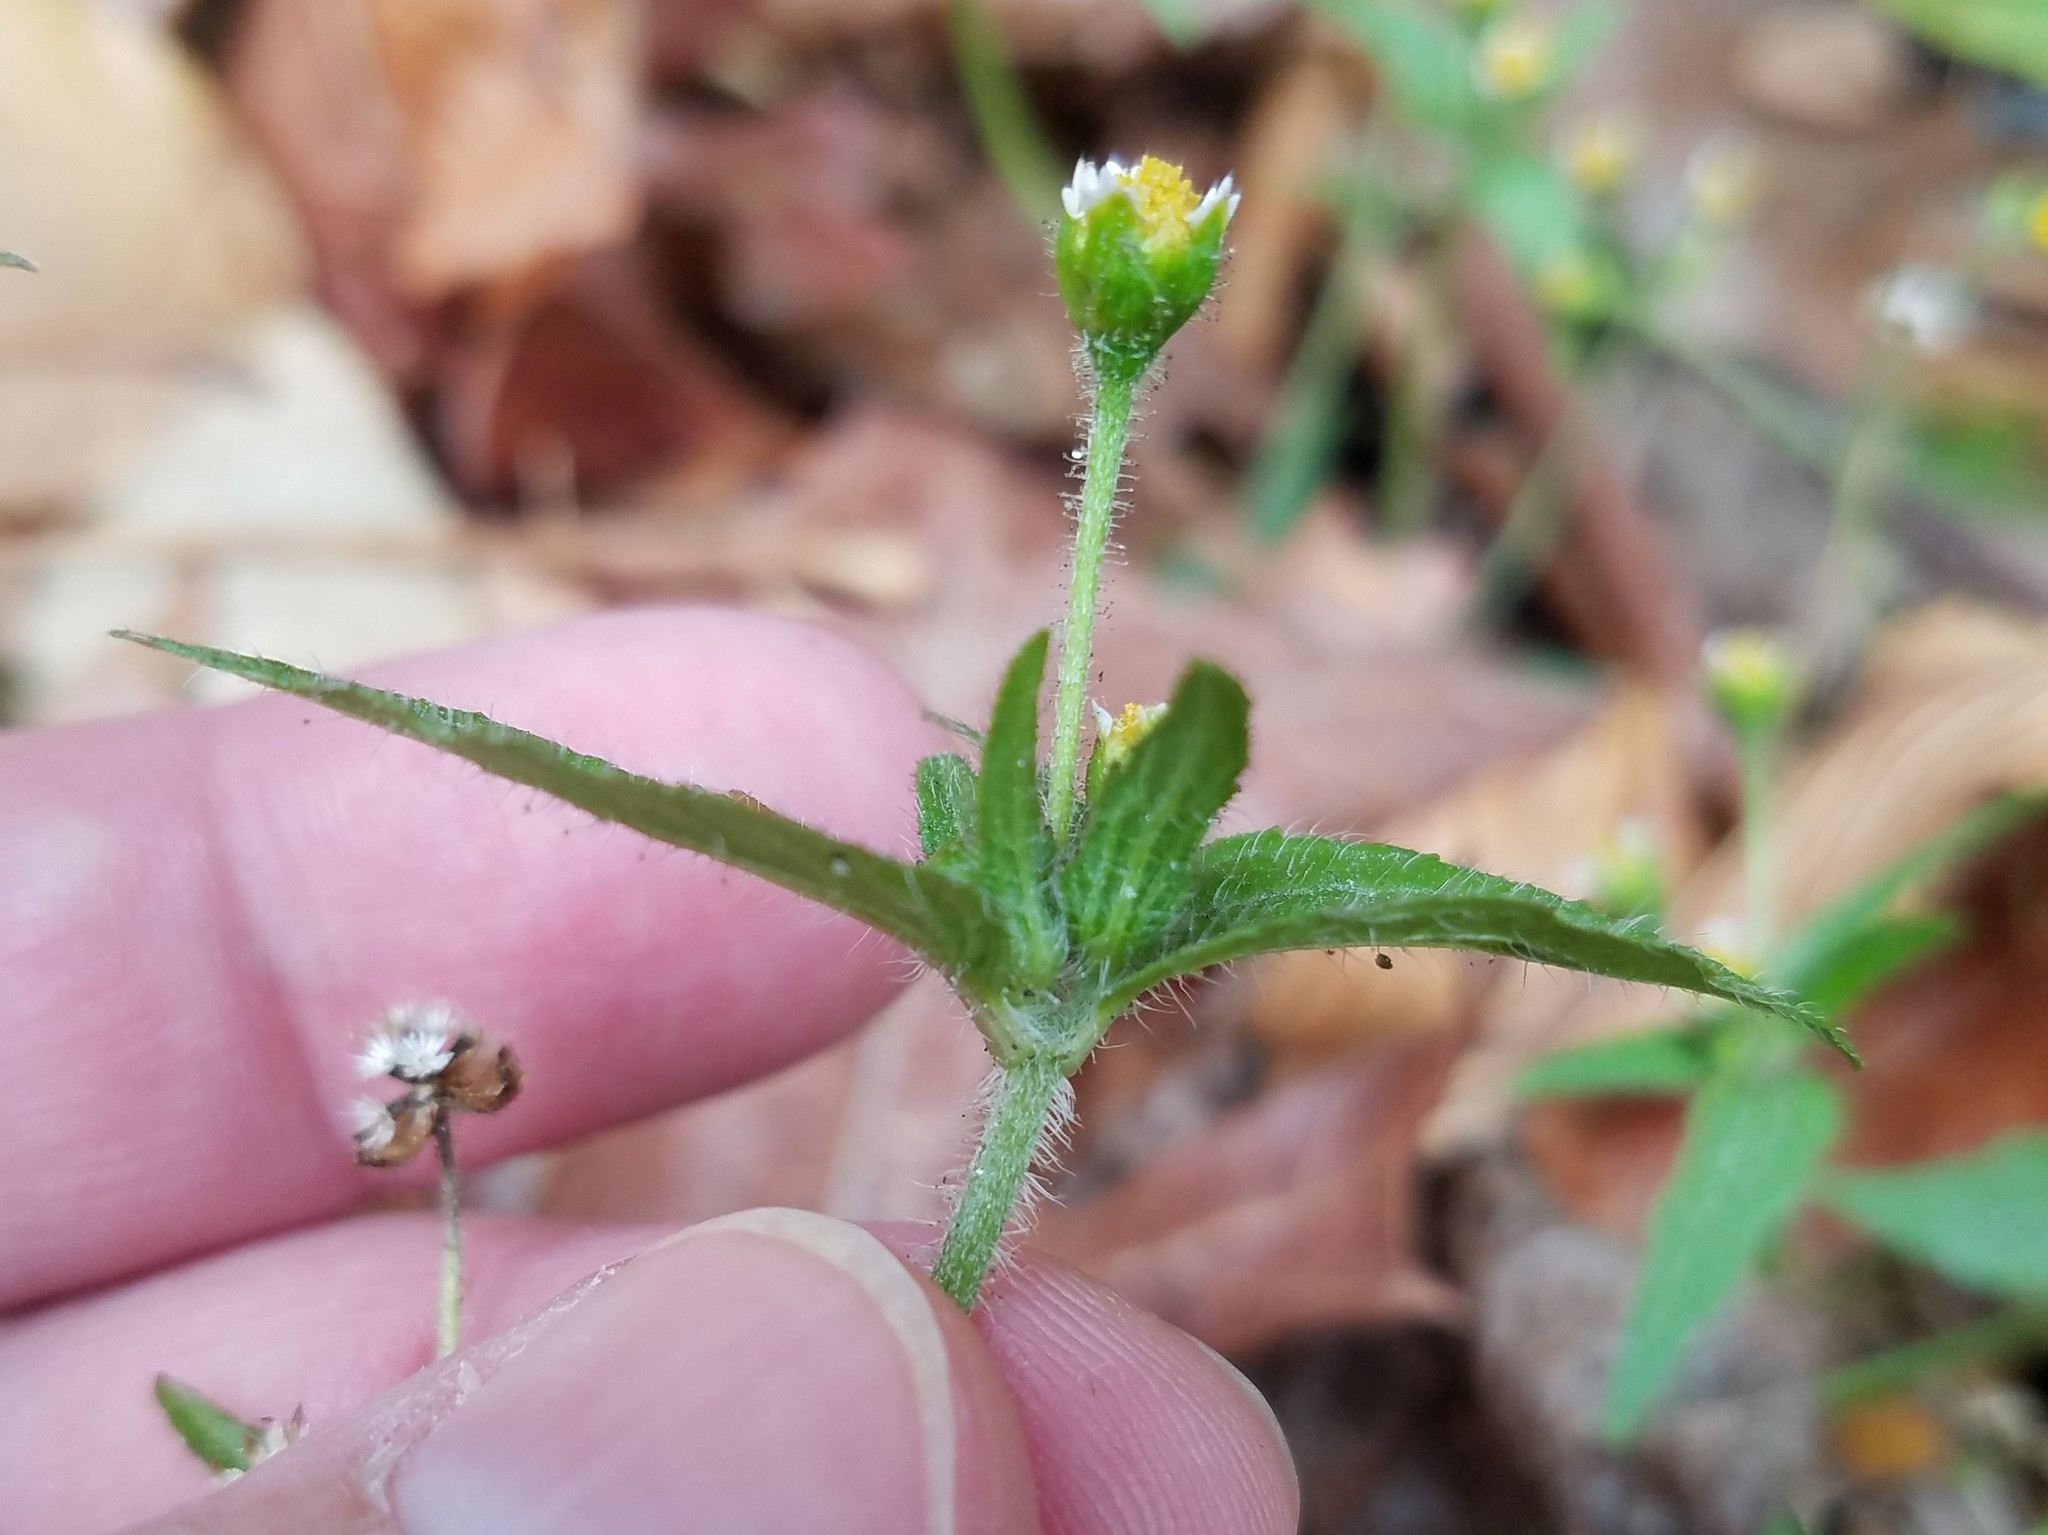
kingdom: Plantae
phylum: Tracheophyta
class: Magnoliopsida
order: Asterales
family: Asteraceae
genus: Galinsoga
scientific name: Galinsoga quadriradiata
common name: Shaggy soldier
